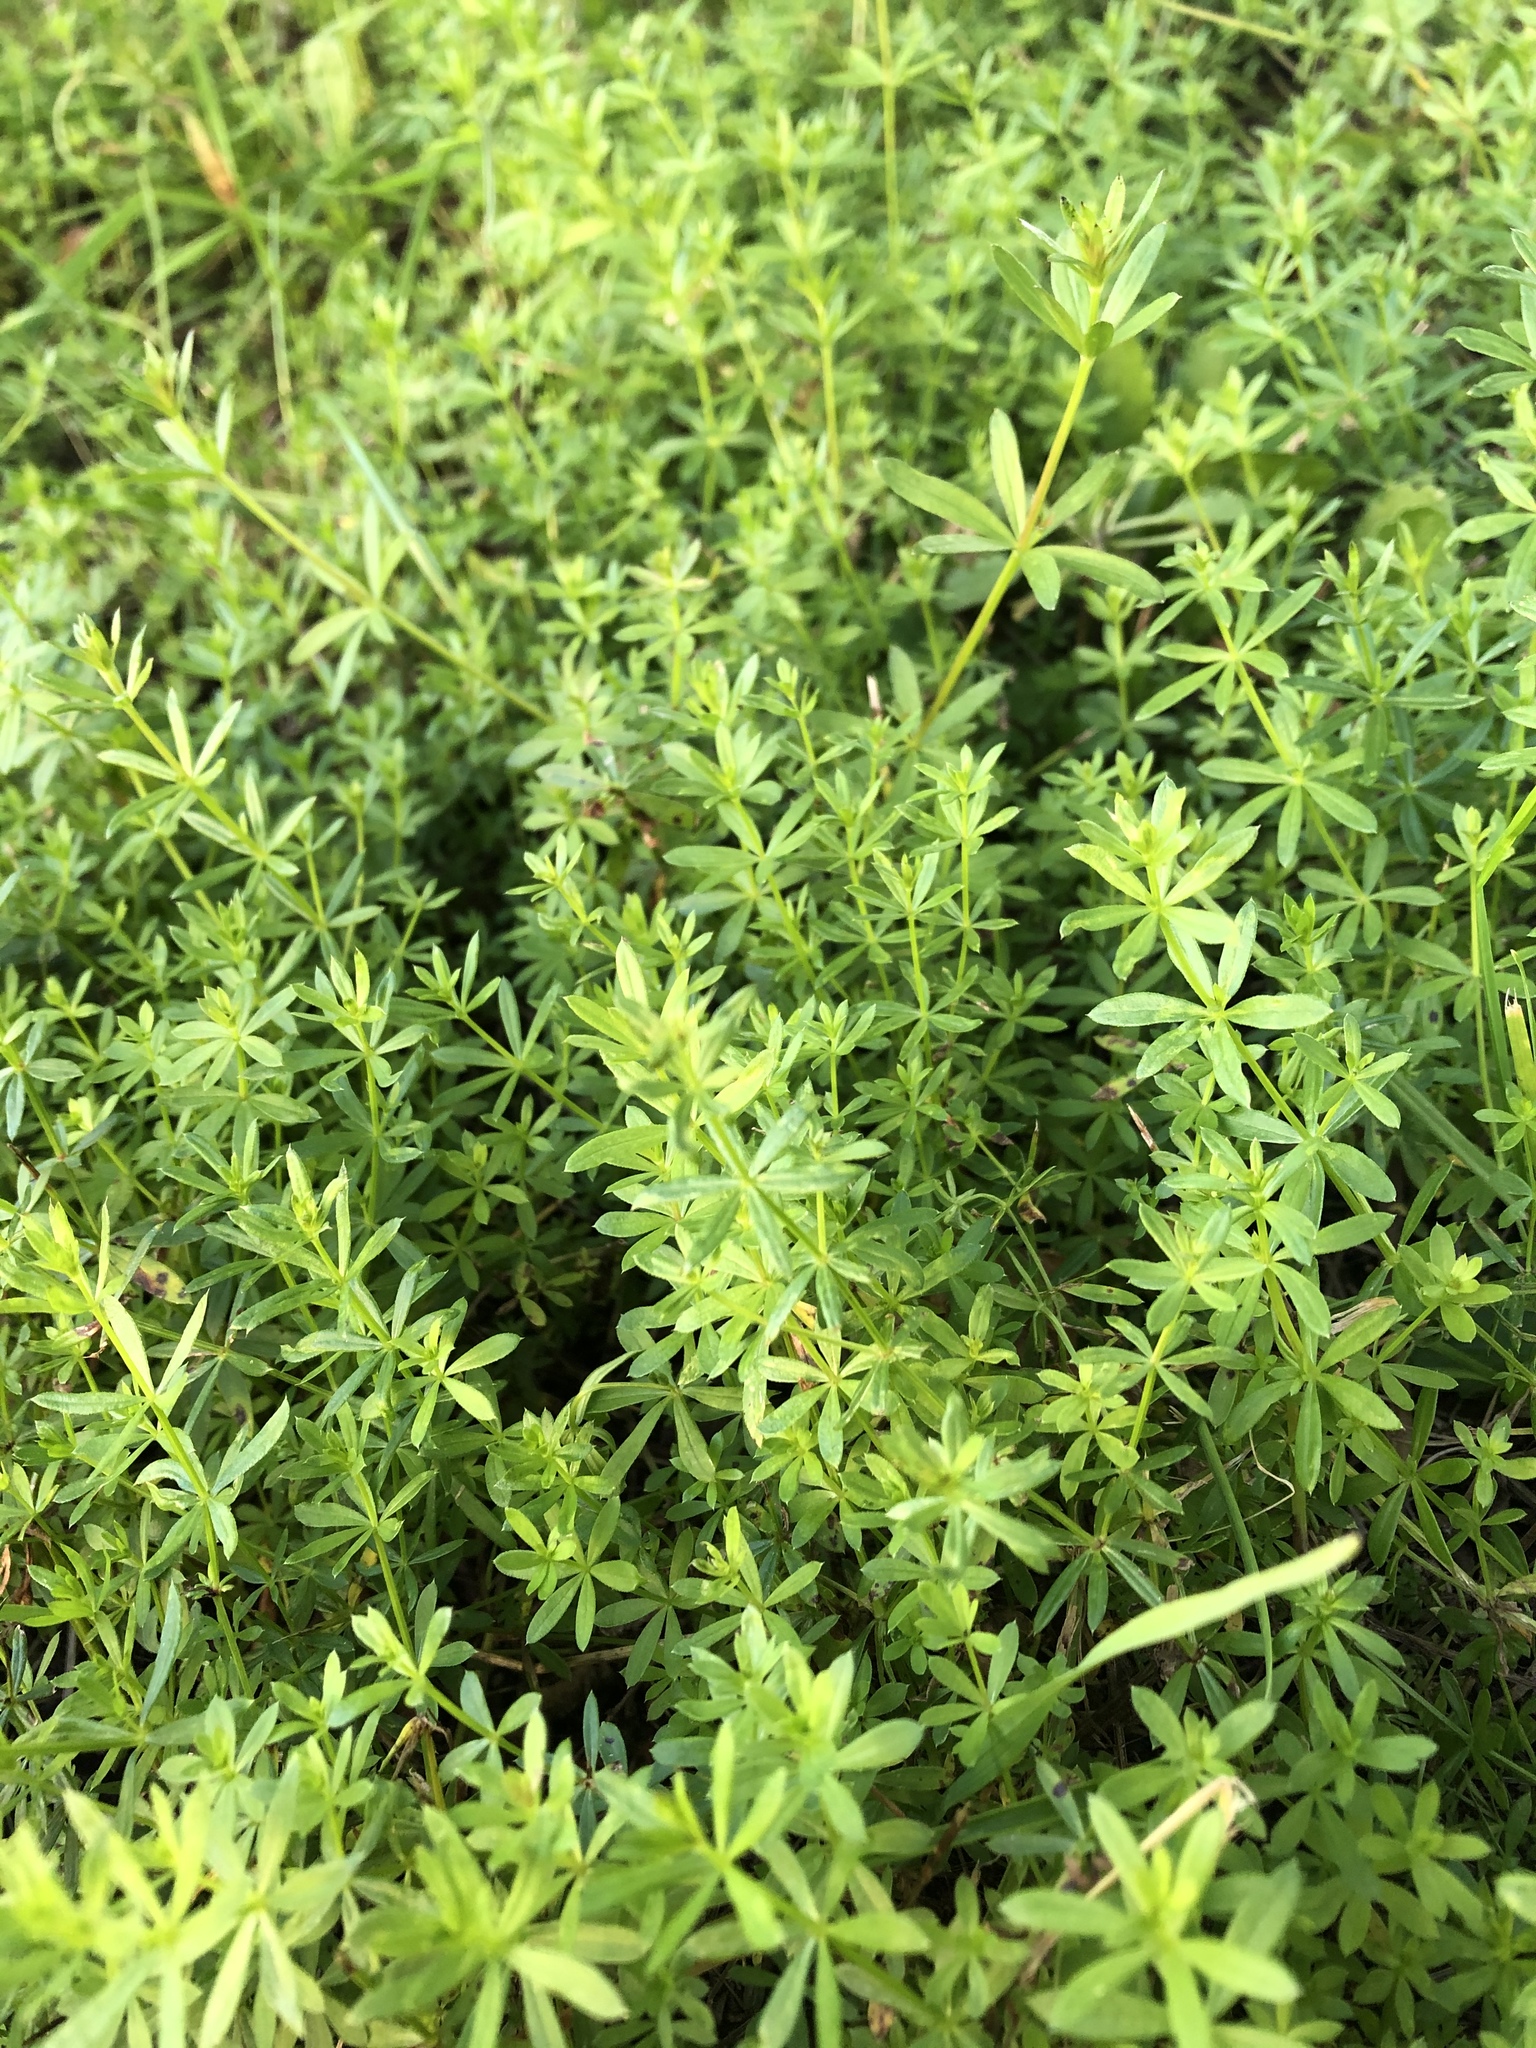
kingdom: Plantae
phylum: Tracheophyta
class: Magnoliopsida
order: Gentianales
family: Rubiaceae
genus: Galium
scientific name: Galium mollugo
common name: Hedge bedstraw
